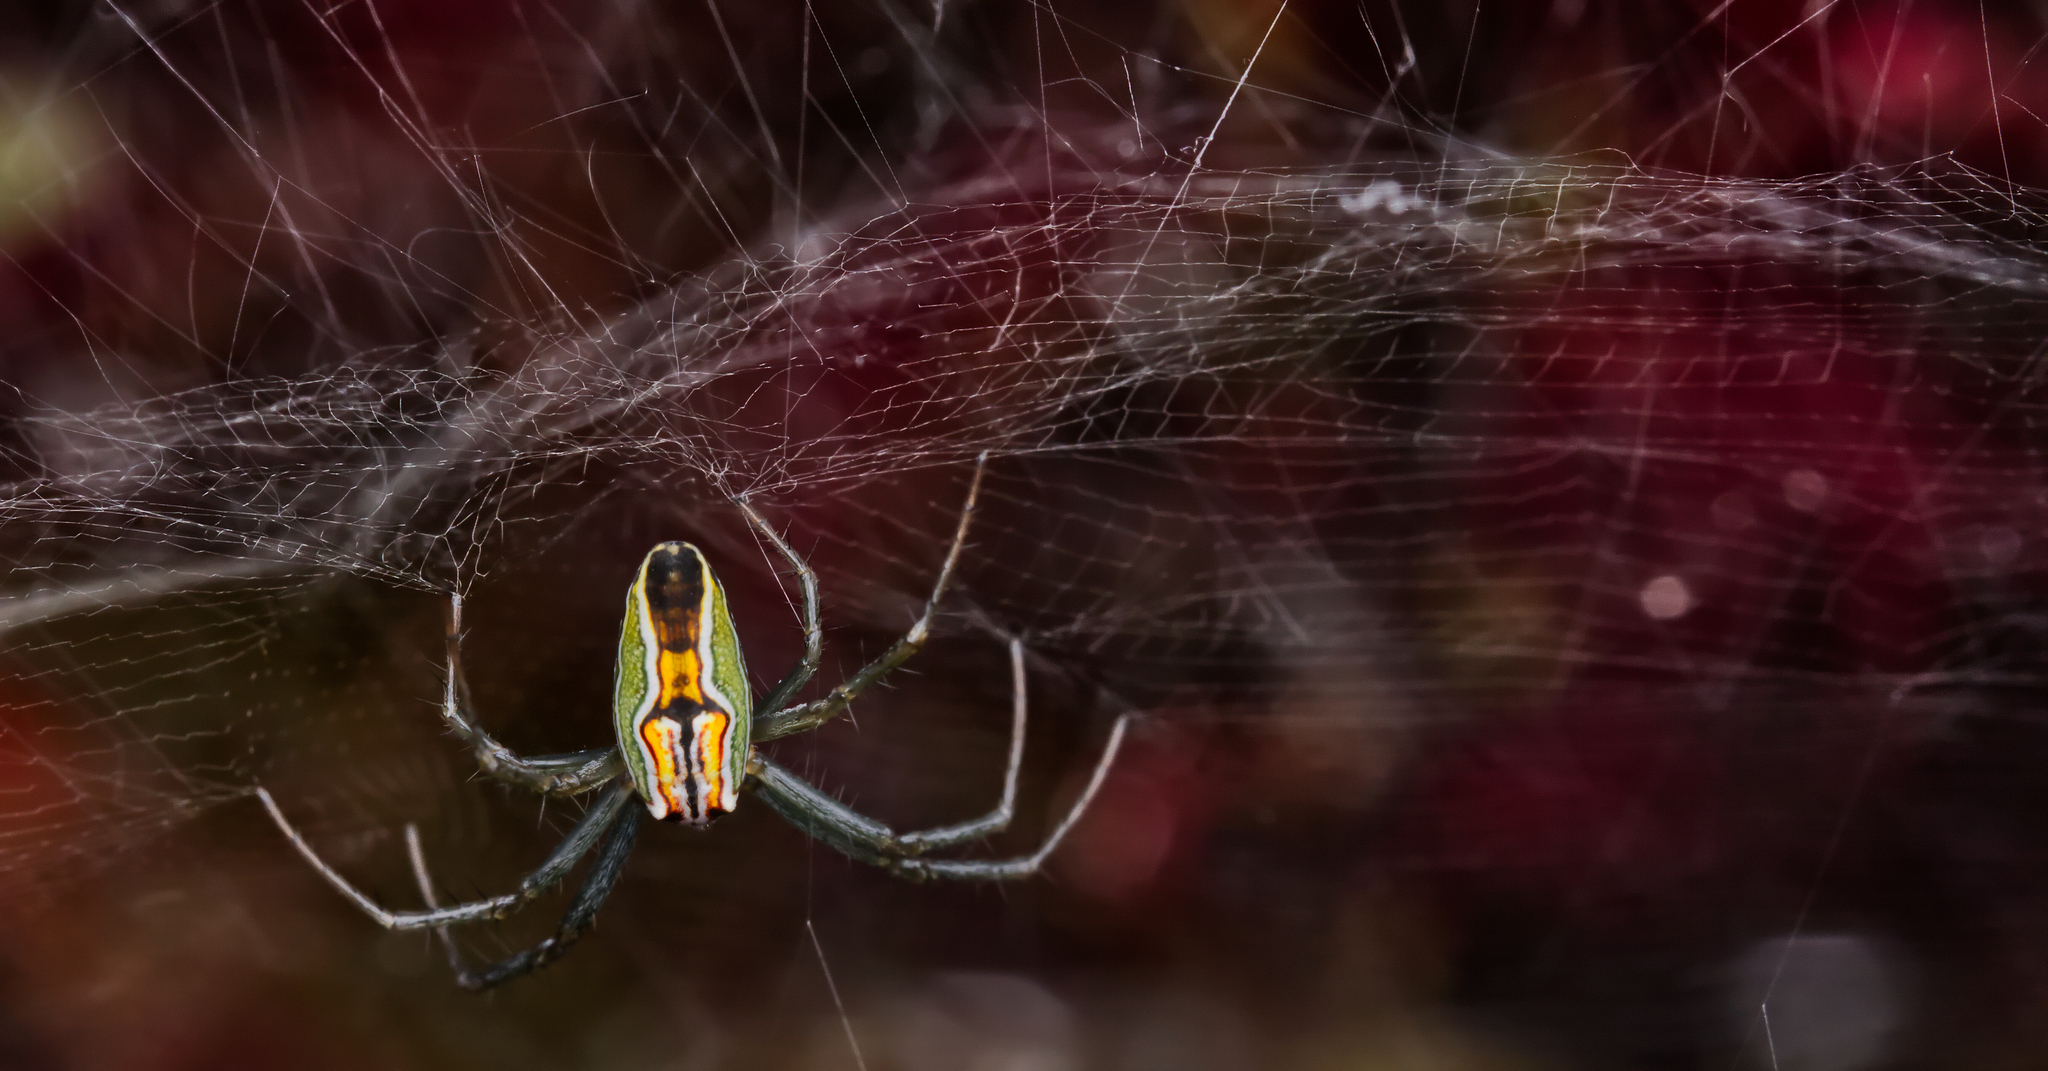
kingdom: Animalia
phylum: Arthropoda
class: Arachnida
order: Araneae
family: Araneidae
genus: Mecynogea
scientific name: Mecynogea lemniscata
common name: Orb weavers
